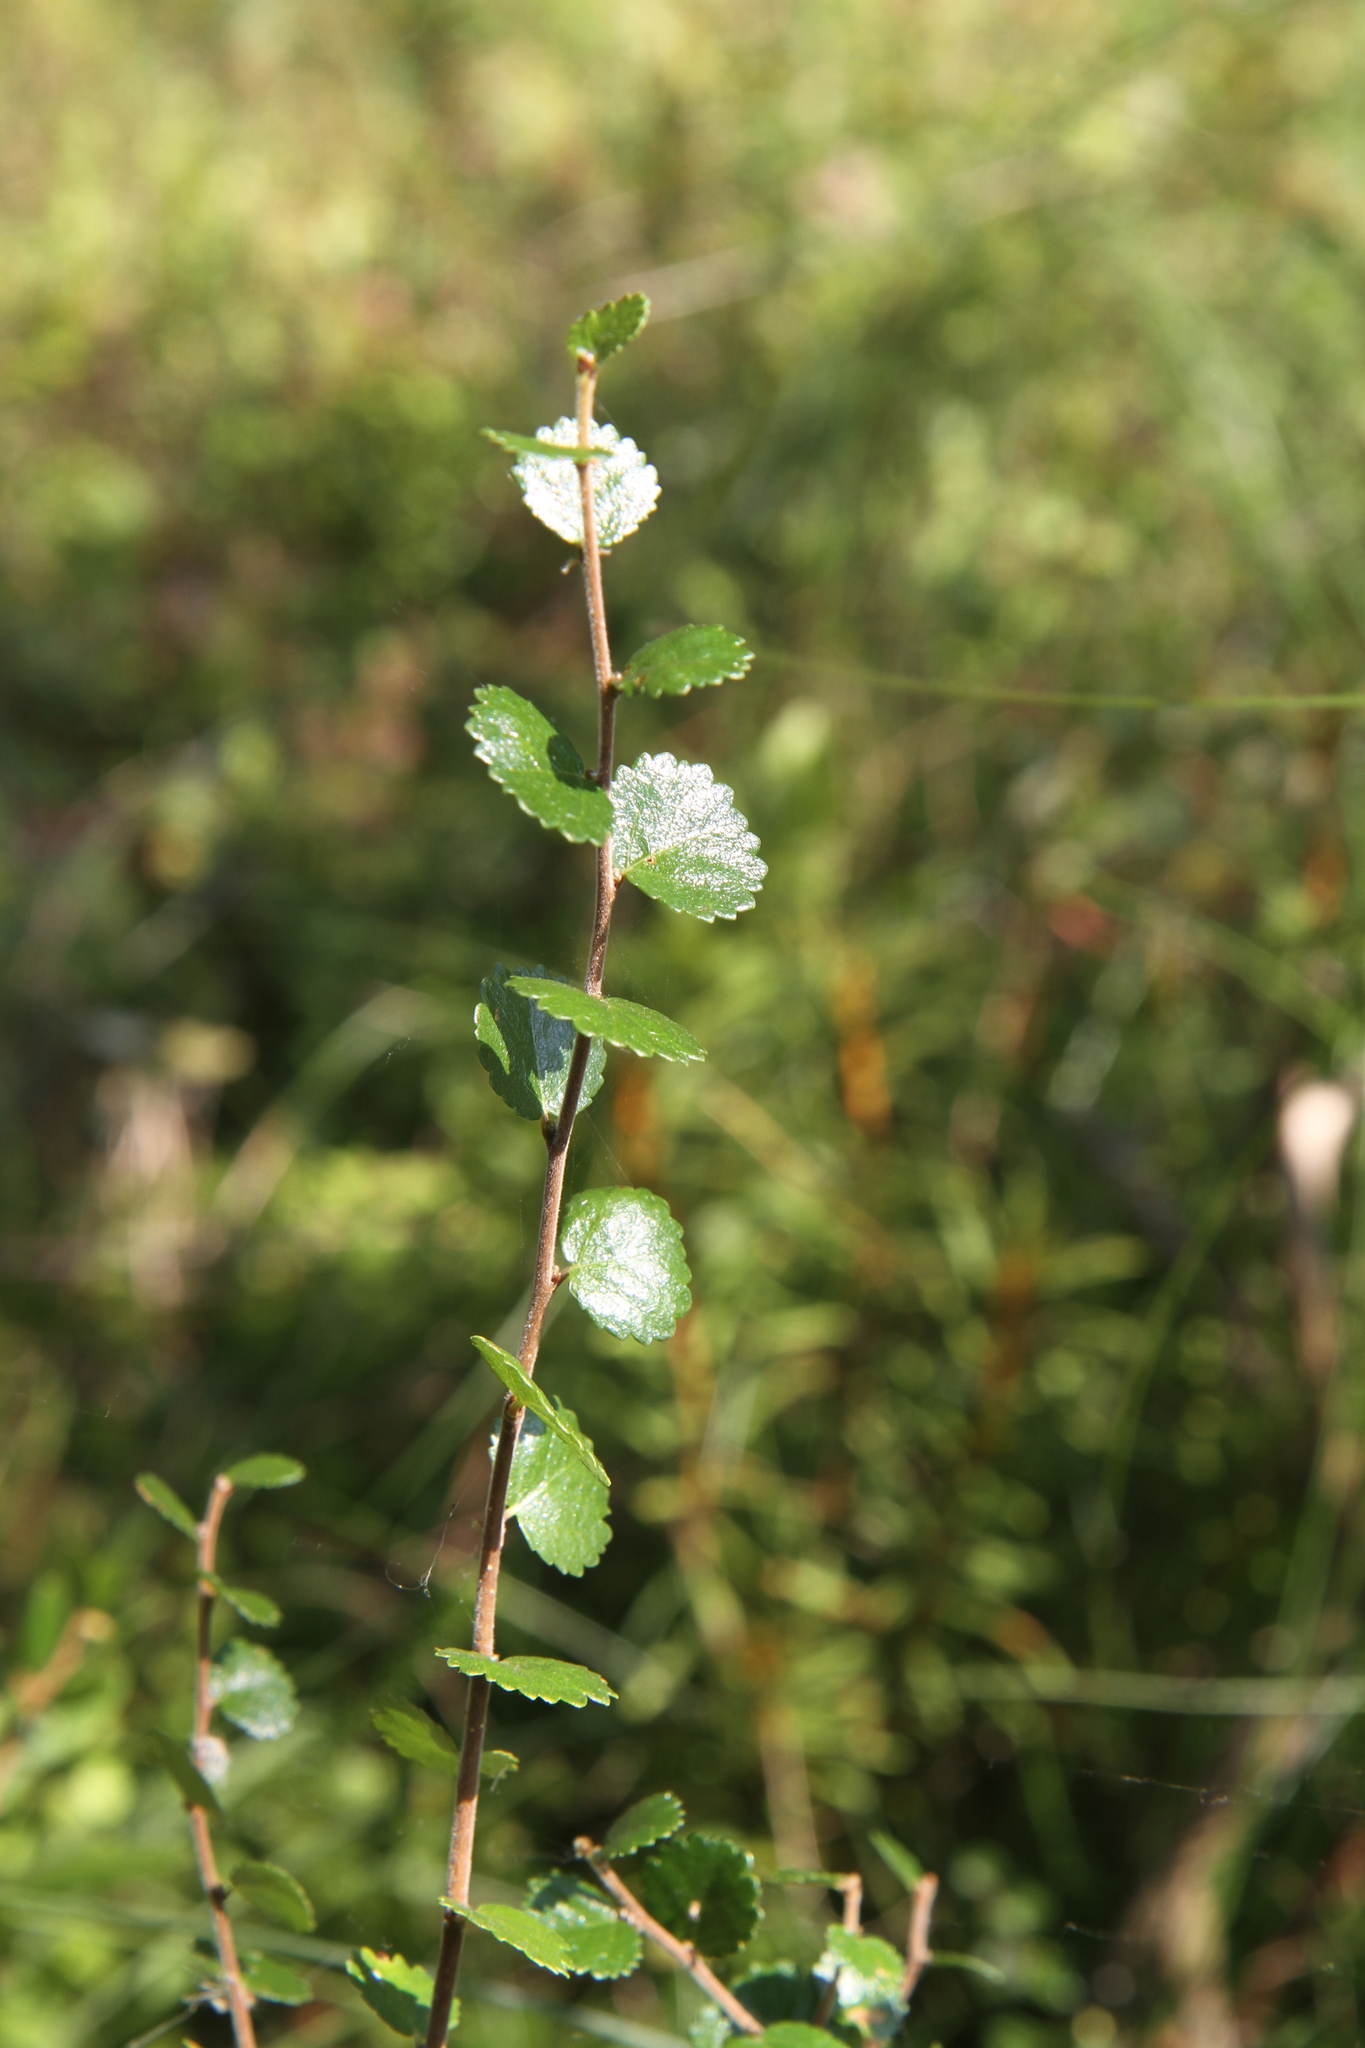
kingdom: Plantae
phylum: Tracheophyta
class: Magnoliopsida
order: Fagales
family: Betulaceae
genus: Betula
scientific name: Betula nana
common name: Arctic dwarf birch
